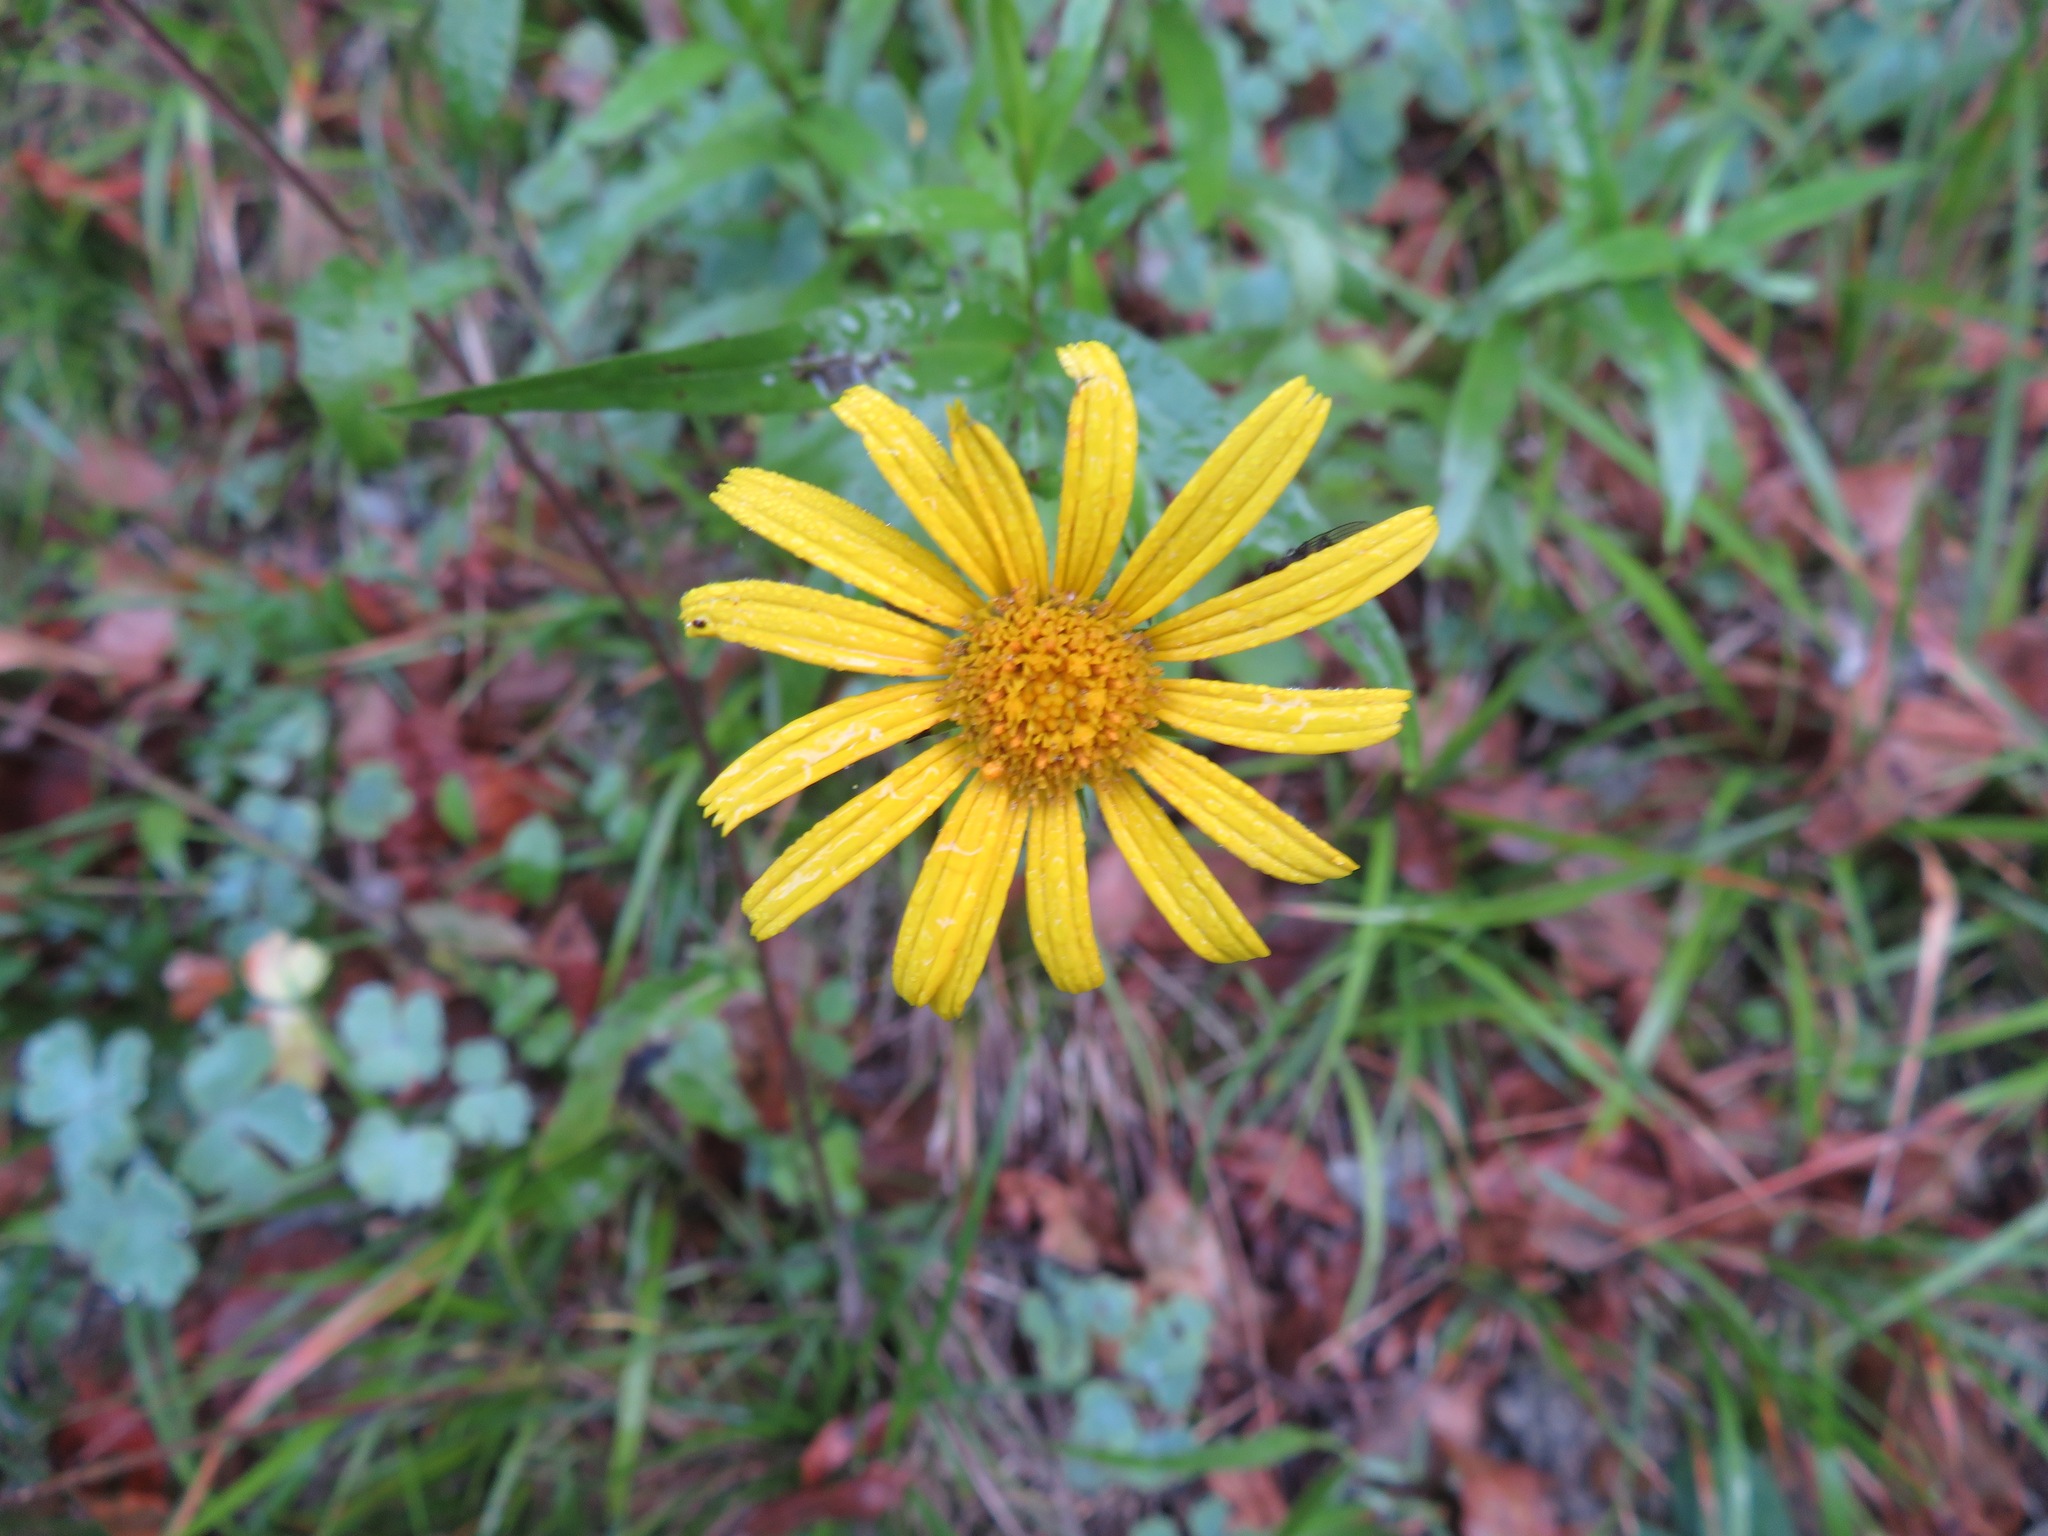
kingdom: Plantae
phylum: Tracheophyta
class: Magnoliopsida
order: Asterales
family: Asteraceae
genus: Buphthalmum
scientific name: Buphthalmum salicifolium
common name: Willow-leaved yellow-oxeye
